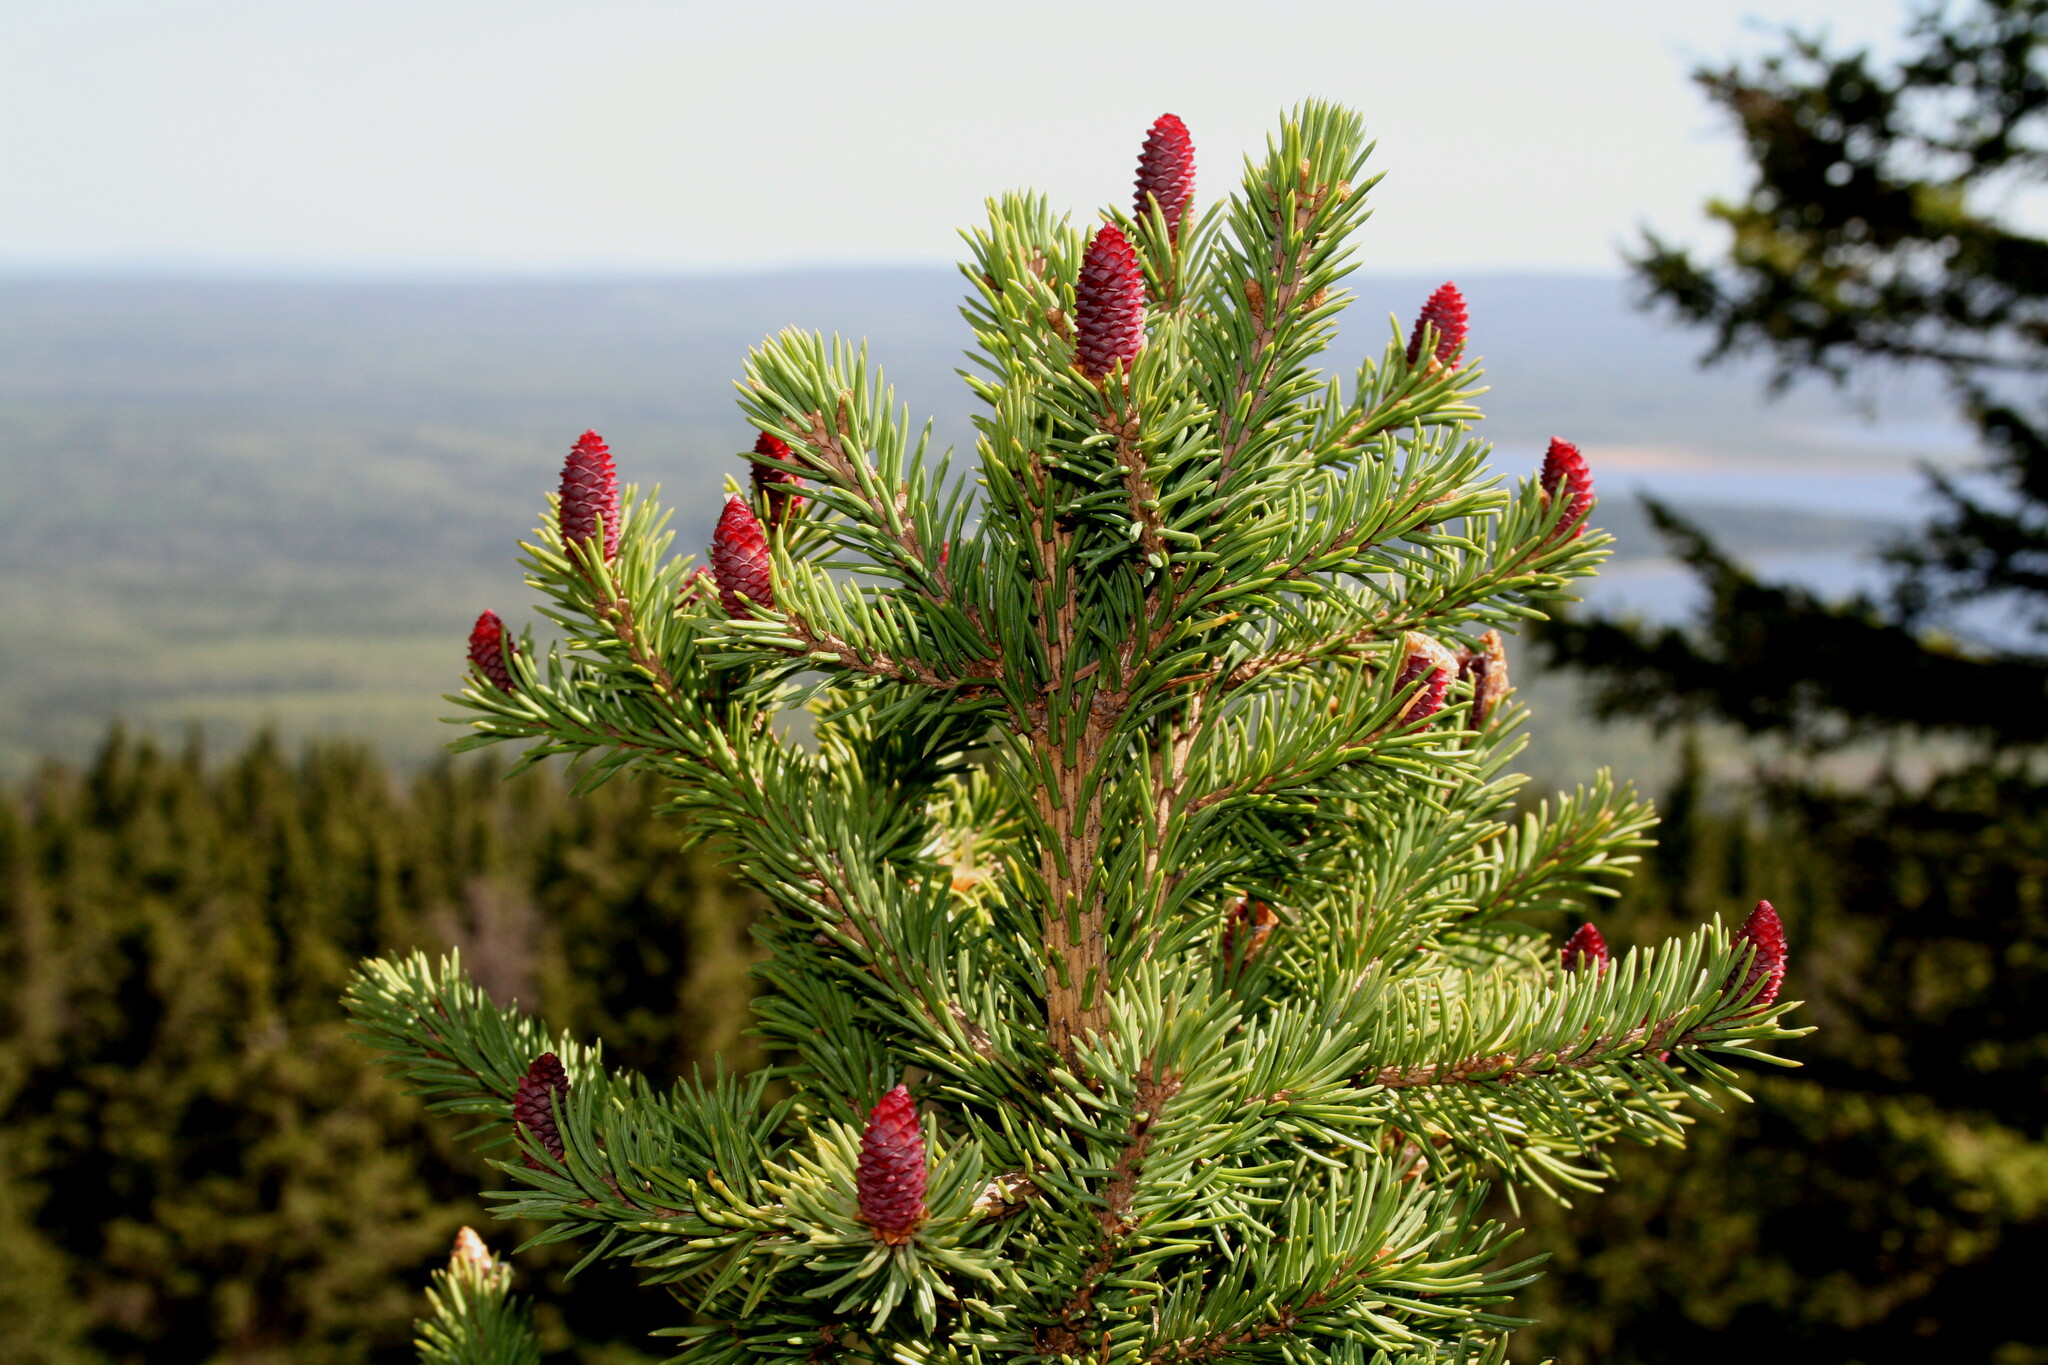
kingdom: Plantae
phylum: Tracheophyta
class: Pinopsida
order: Pinales
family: Pinaceae
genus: Picea
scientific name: Picea obovata
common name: Siberian spruce
